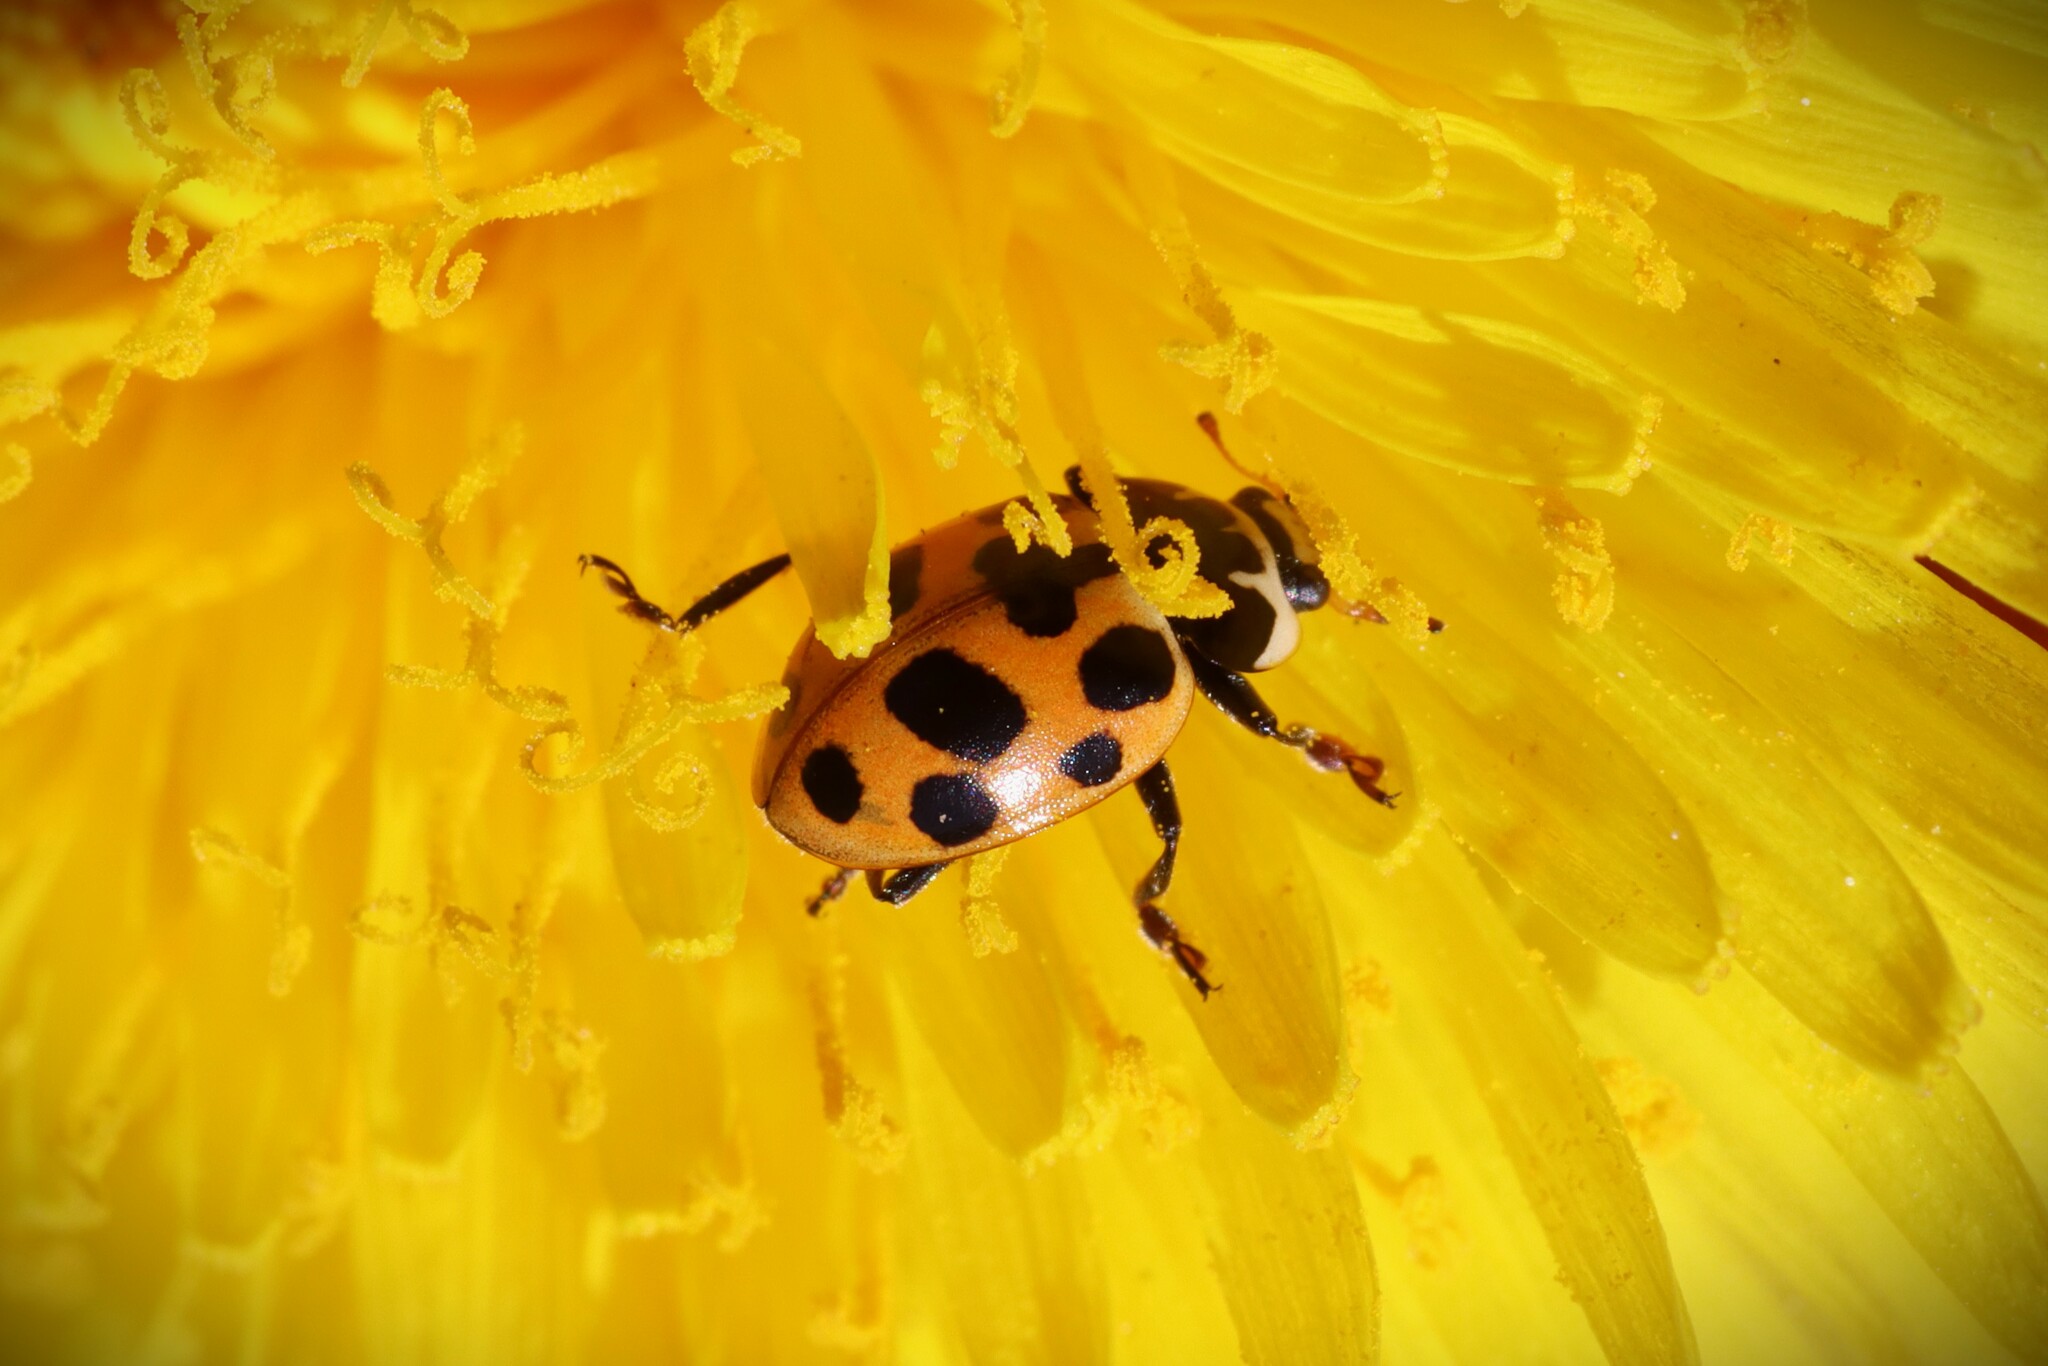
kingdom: Animalia
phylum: Arthropoda
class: Insecta
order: Coleoptera
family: Coccinellidae
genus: Ceratomegilla
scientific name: Ceratomegilla notata
